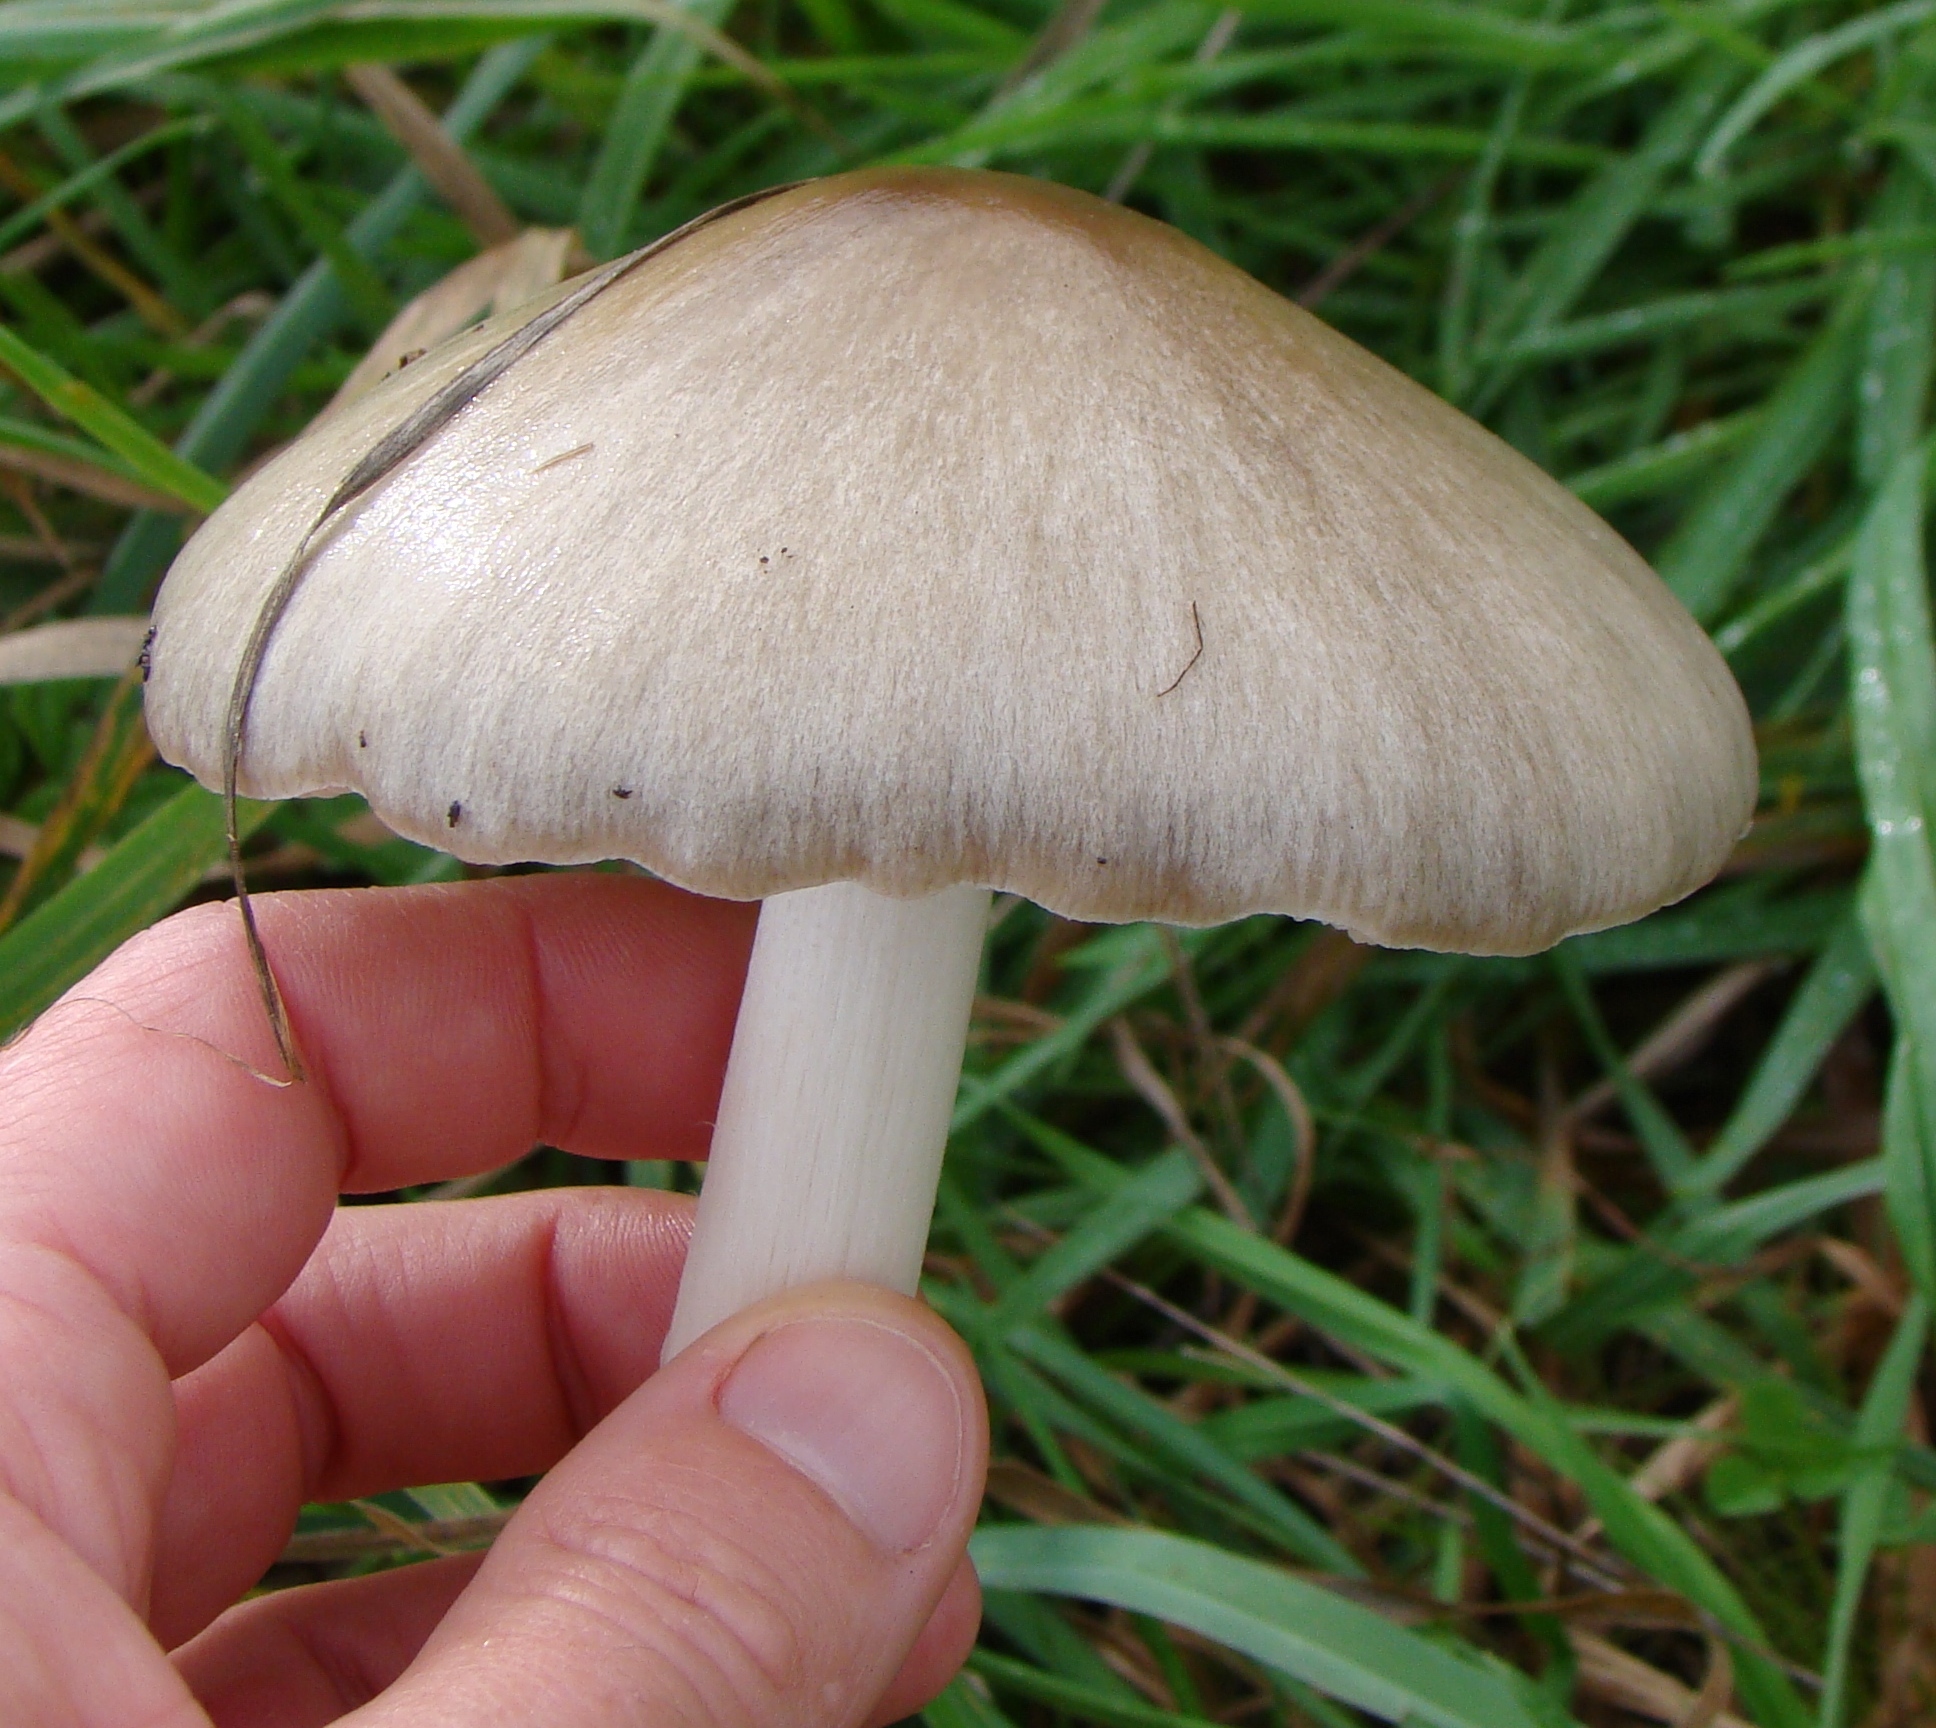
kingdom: Fungi
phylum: Basidiomycota
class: Agaricomycetes
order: Agaricales
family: Pluteaceae
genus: Volvopluteus
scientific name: Volvopluteus gloiocephalus
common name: Stubble rosegill
